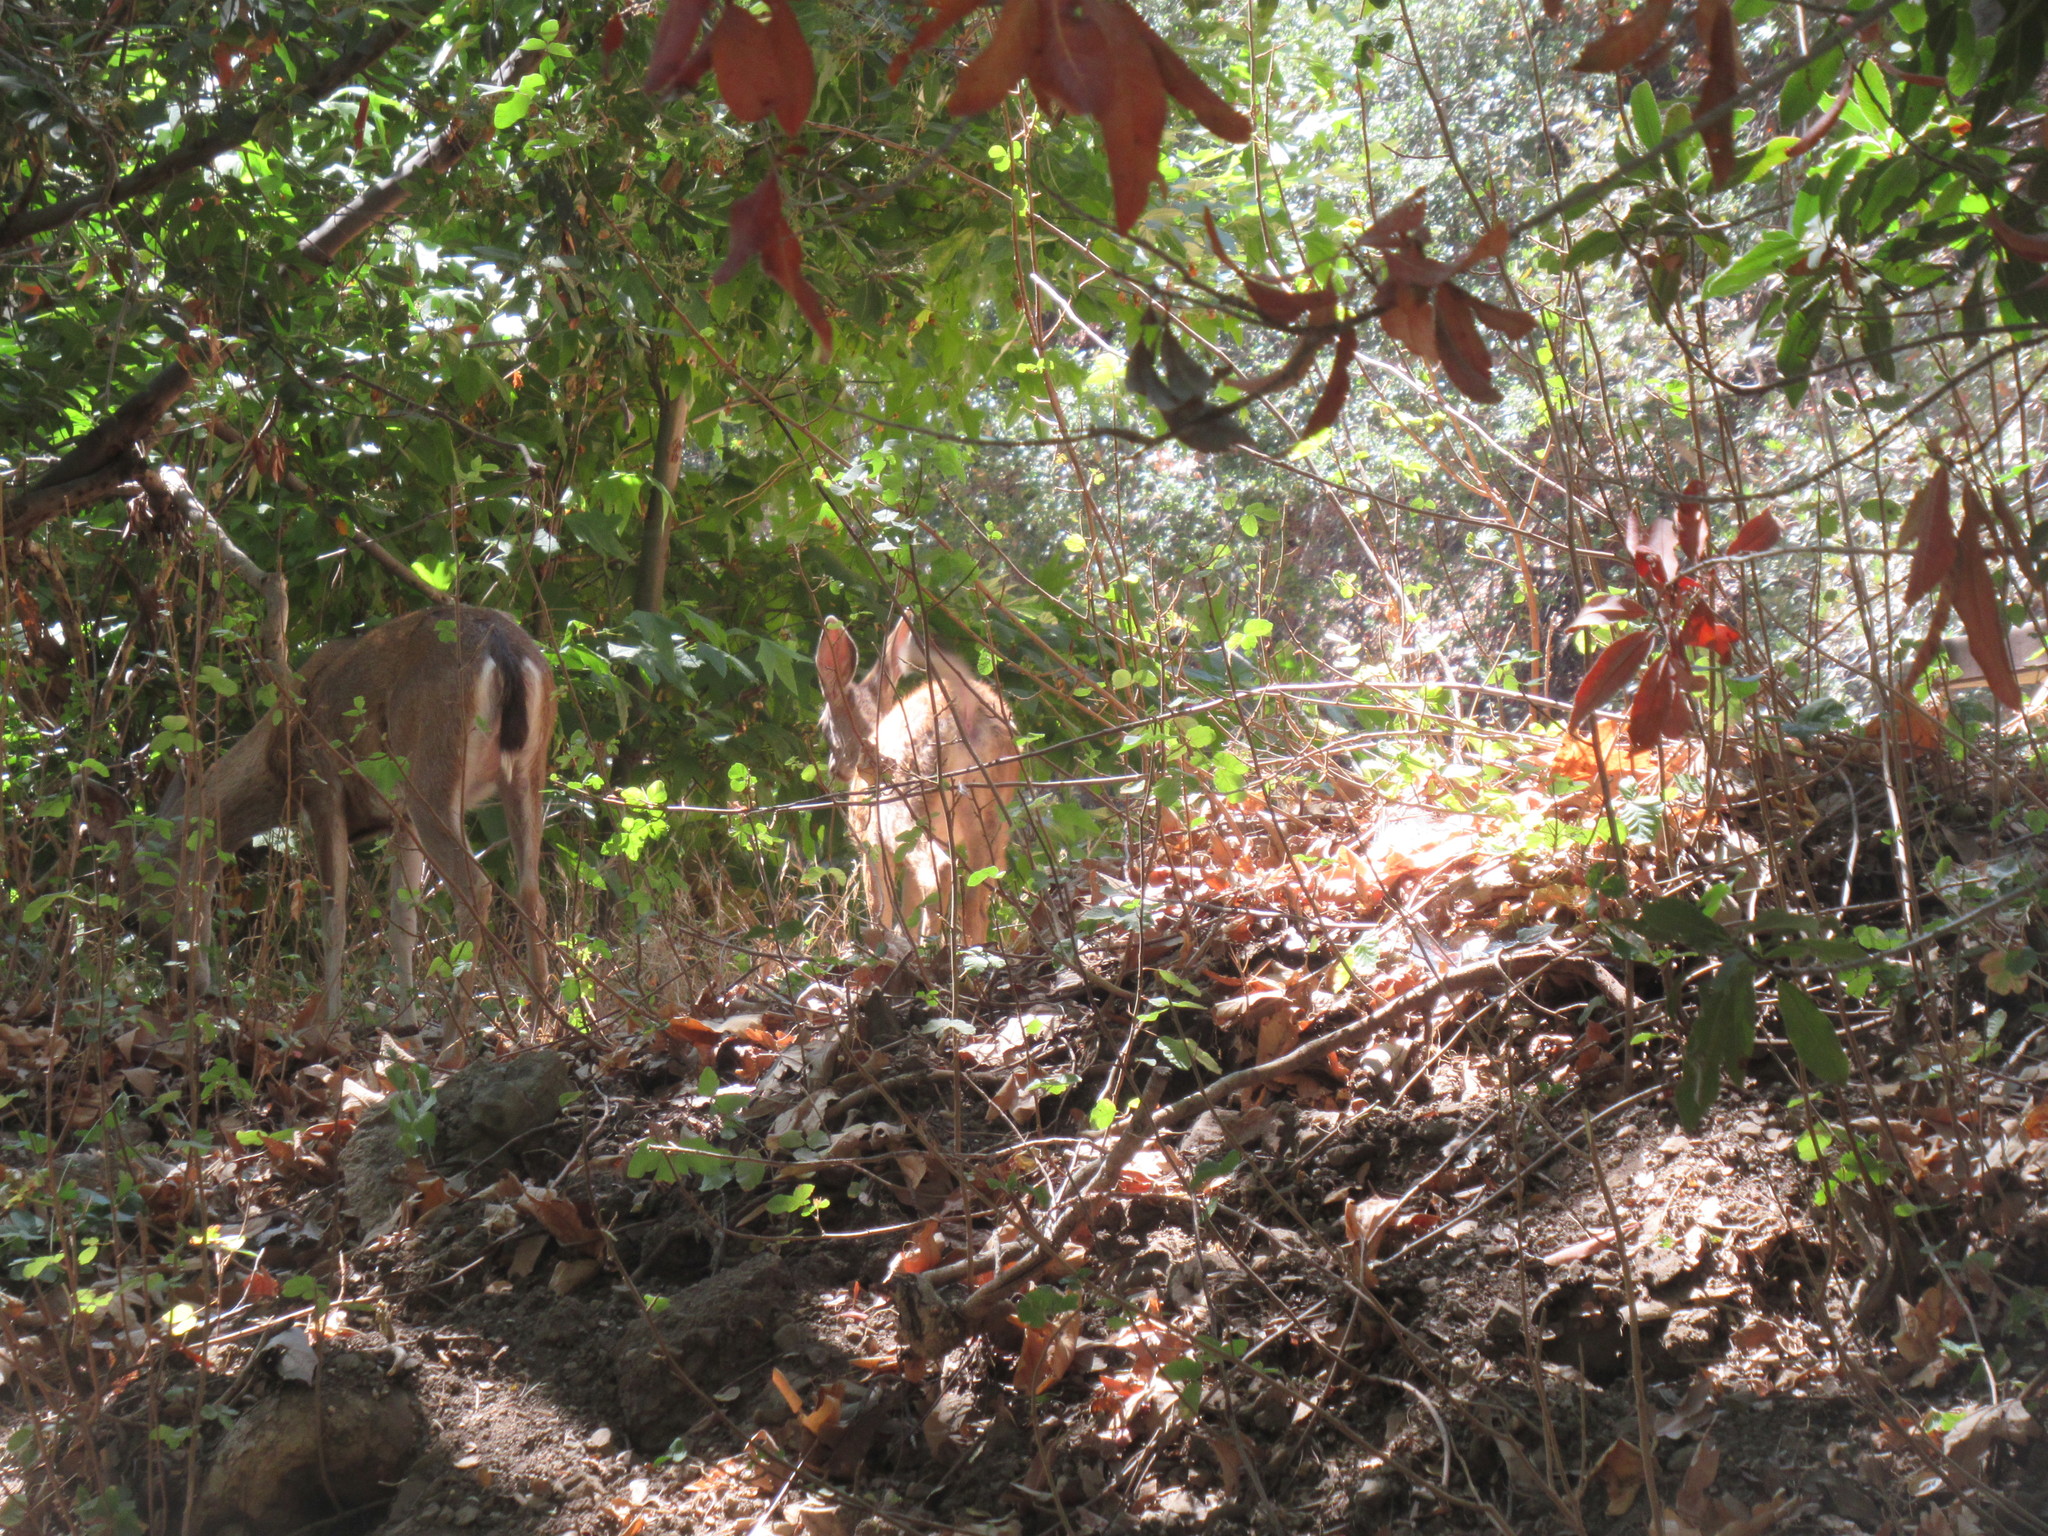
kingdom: Animalia
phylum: Chordata
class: Mammalia
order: Artiodactyla
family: Cervidae
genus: Odocoileus
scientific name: Odocoileus hemionus
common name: Mule deer
